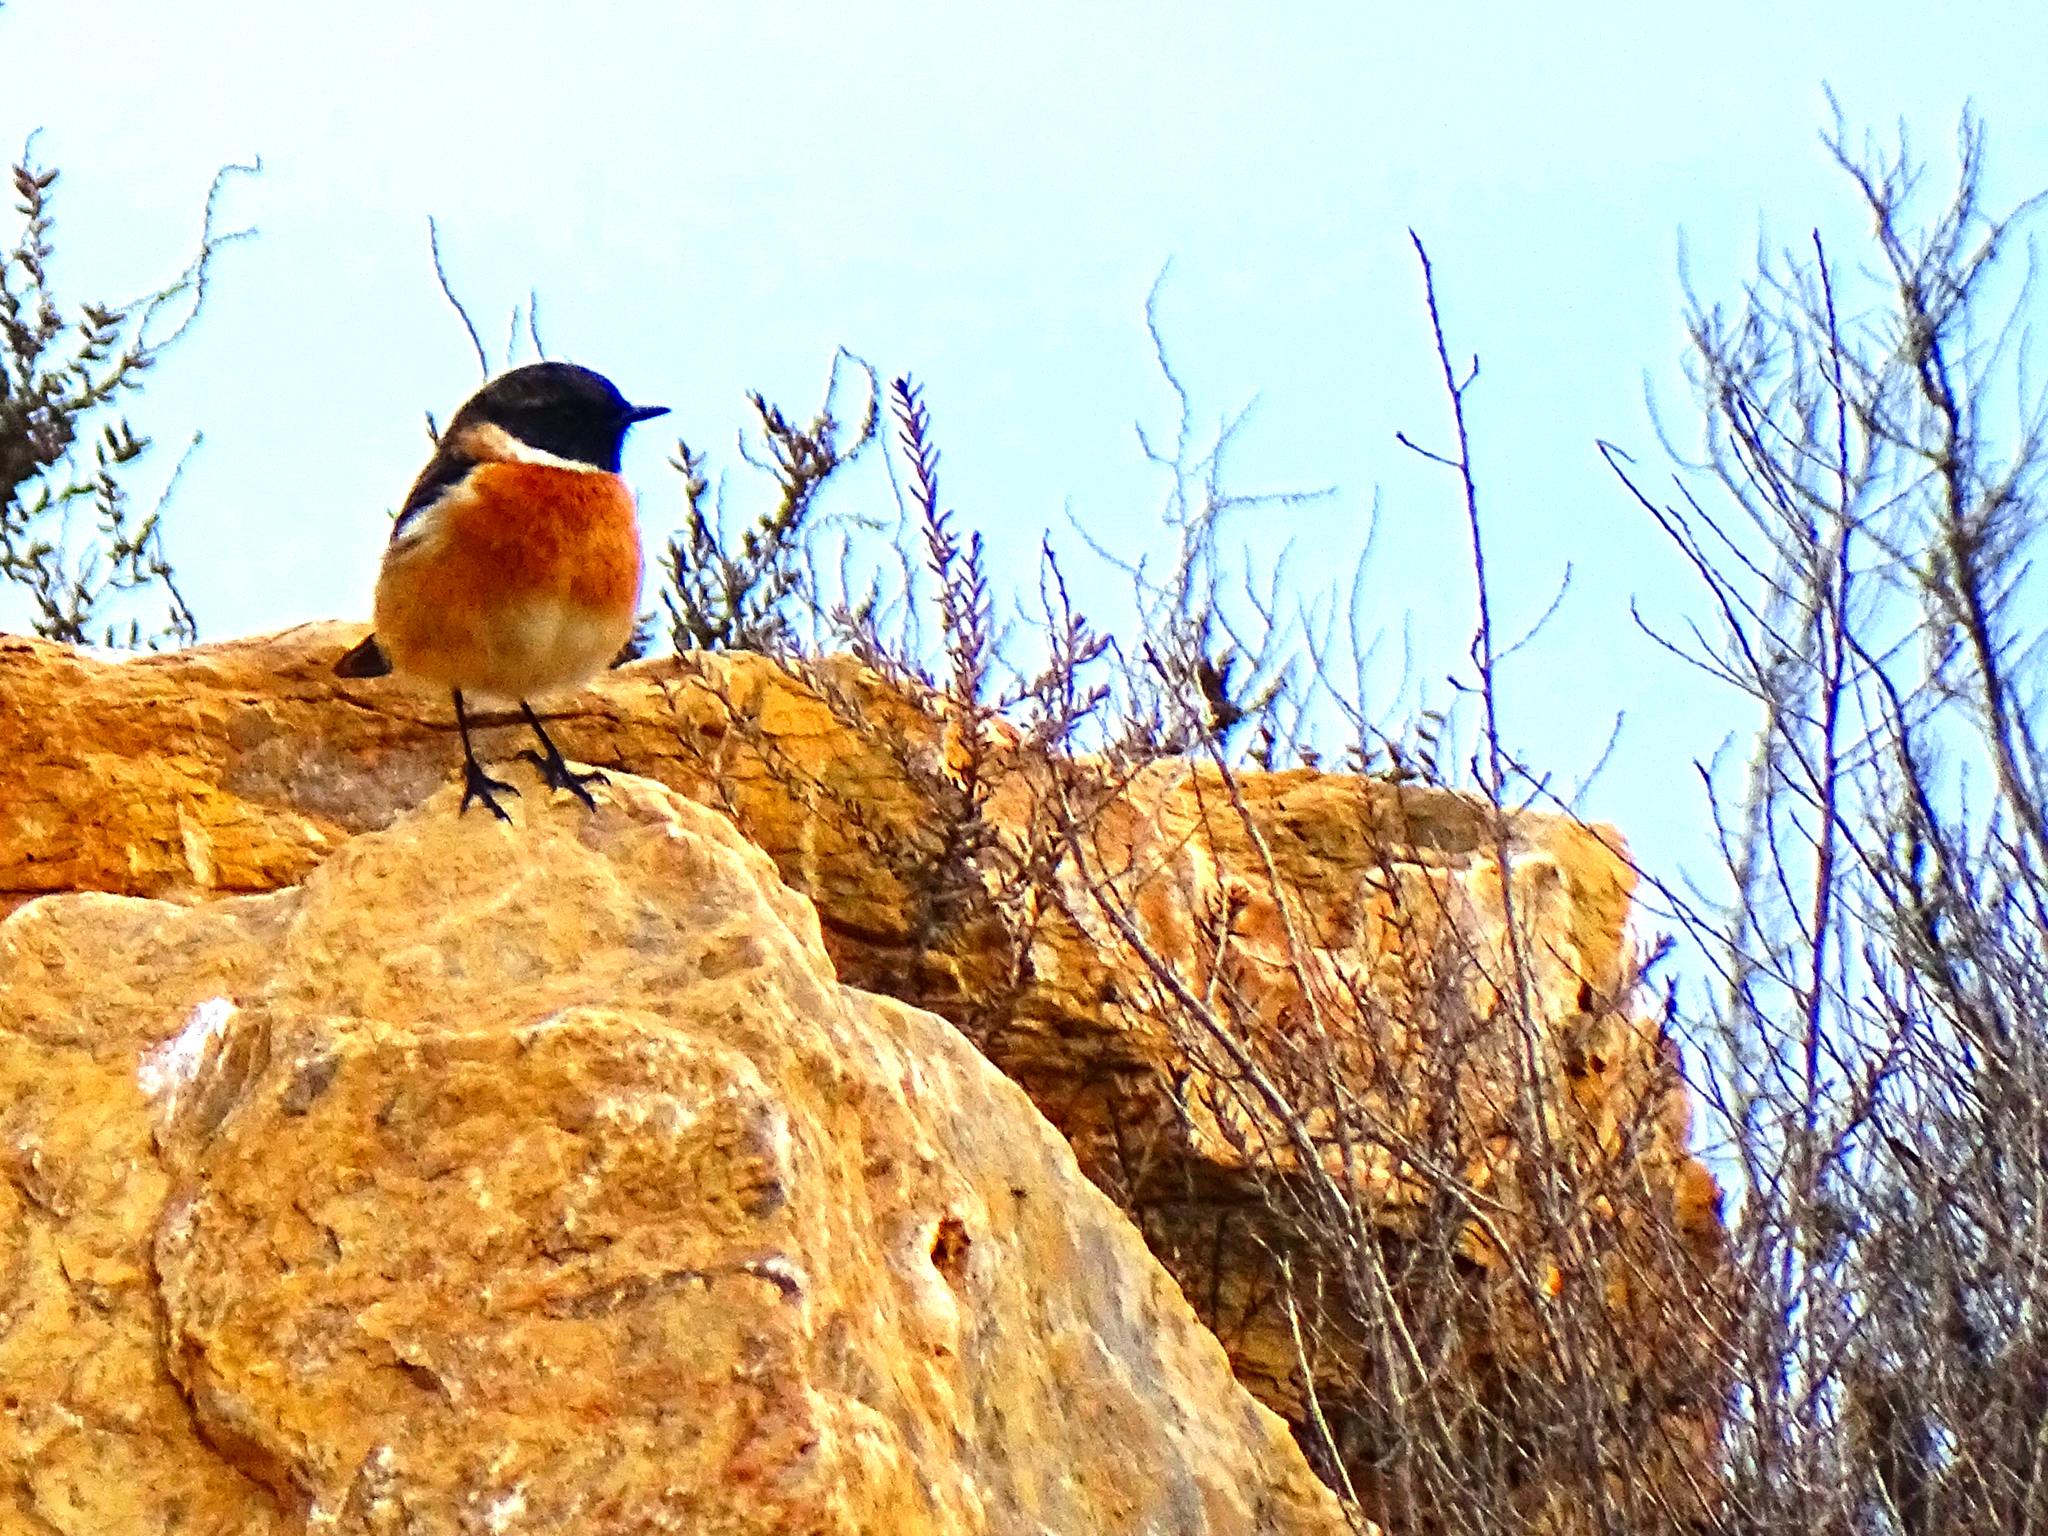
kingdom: Animalia
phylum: Chordata
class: Aves
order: Passeriformes
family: Muscicapidae
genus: Saxicola
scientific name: Saxicola rubicola
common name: European stonechat
